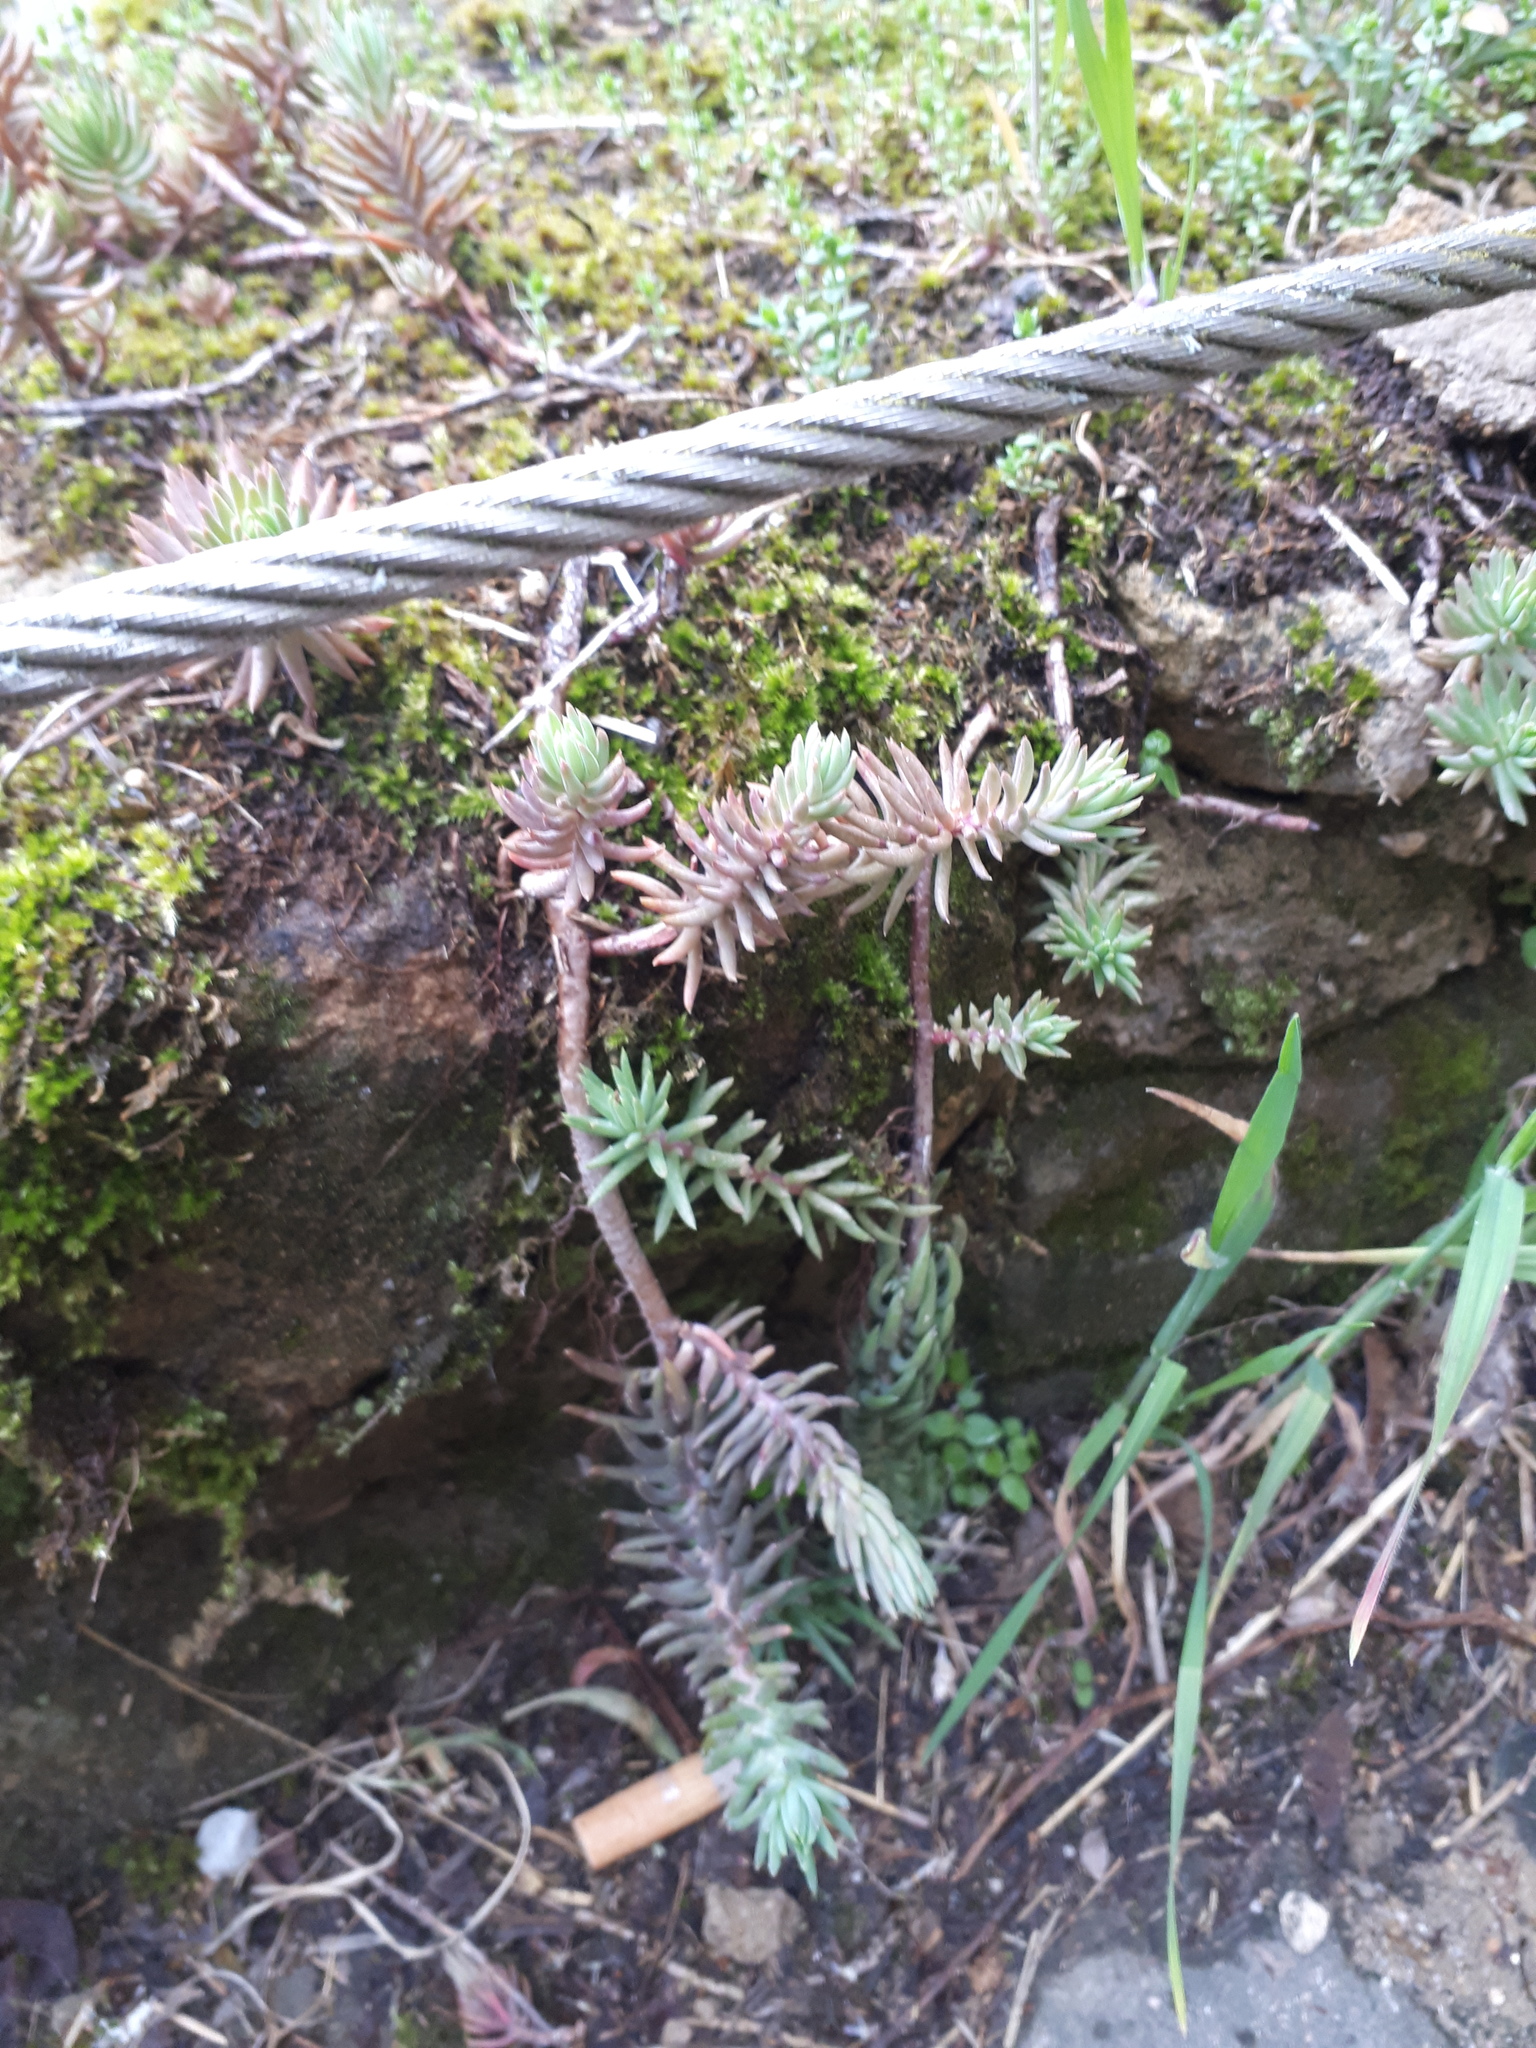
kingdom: Plantae
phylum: Tracheophyta
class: Magnoliopsida
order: Saxifragales
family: Crassulaceae
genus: Petrosedum
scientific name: Petrosedum rupestre
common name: Jenny's stonecrop
